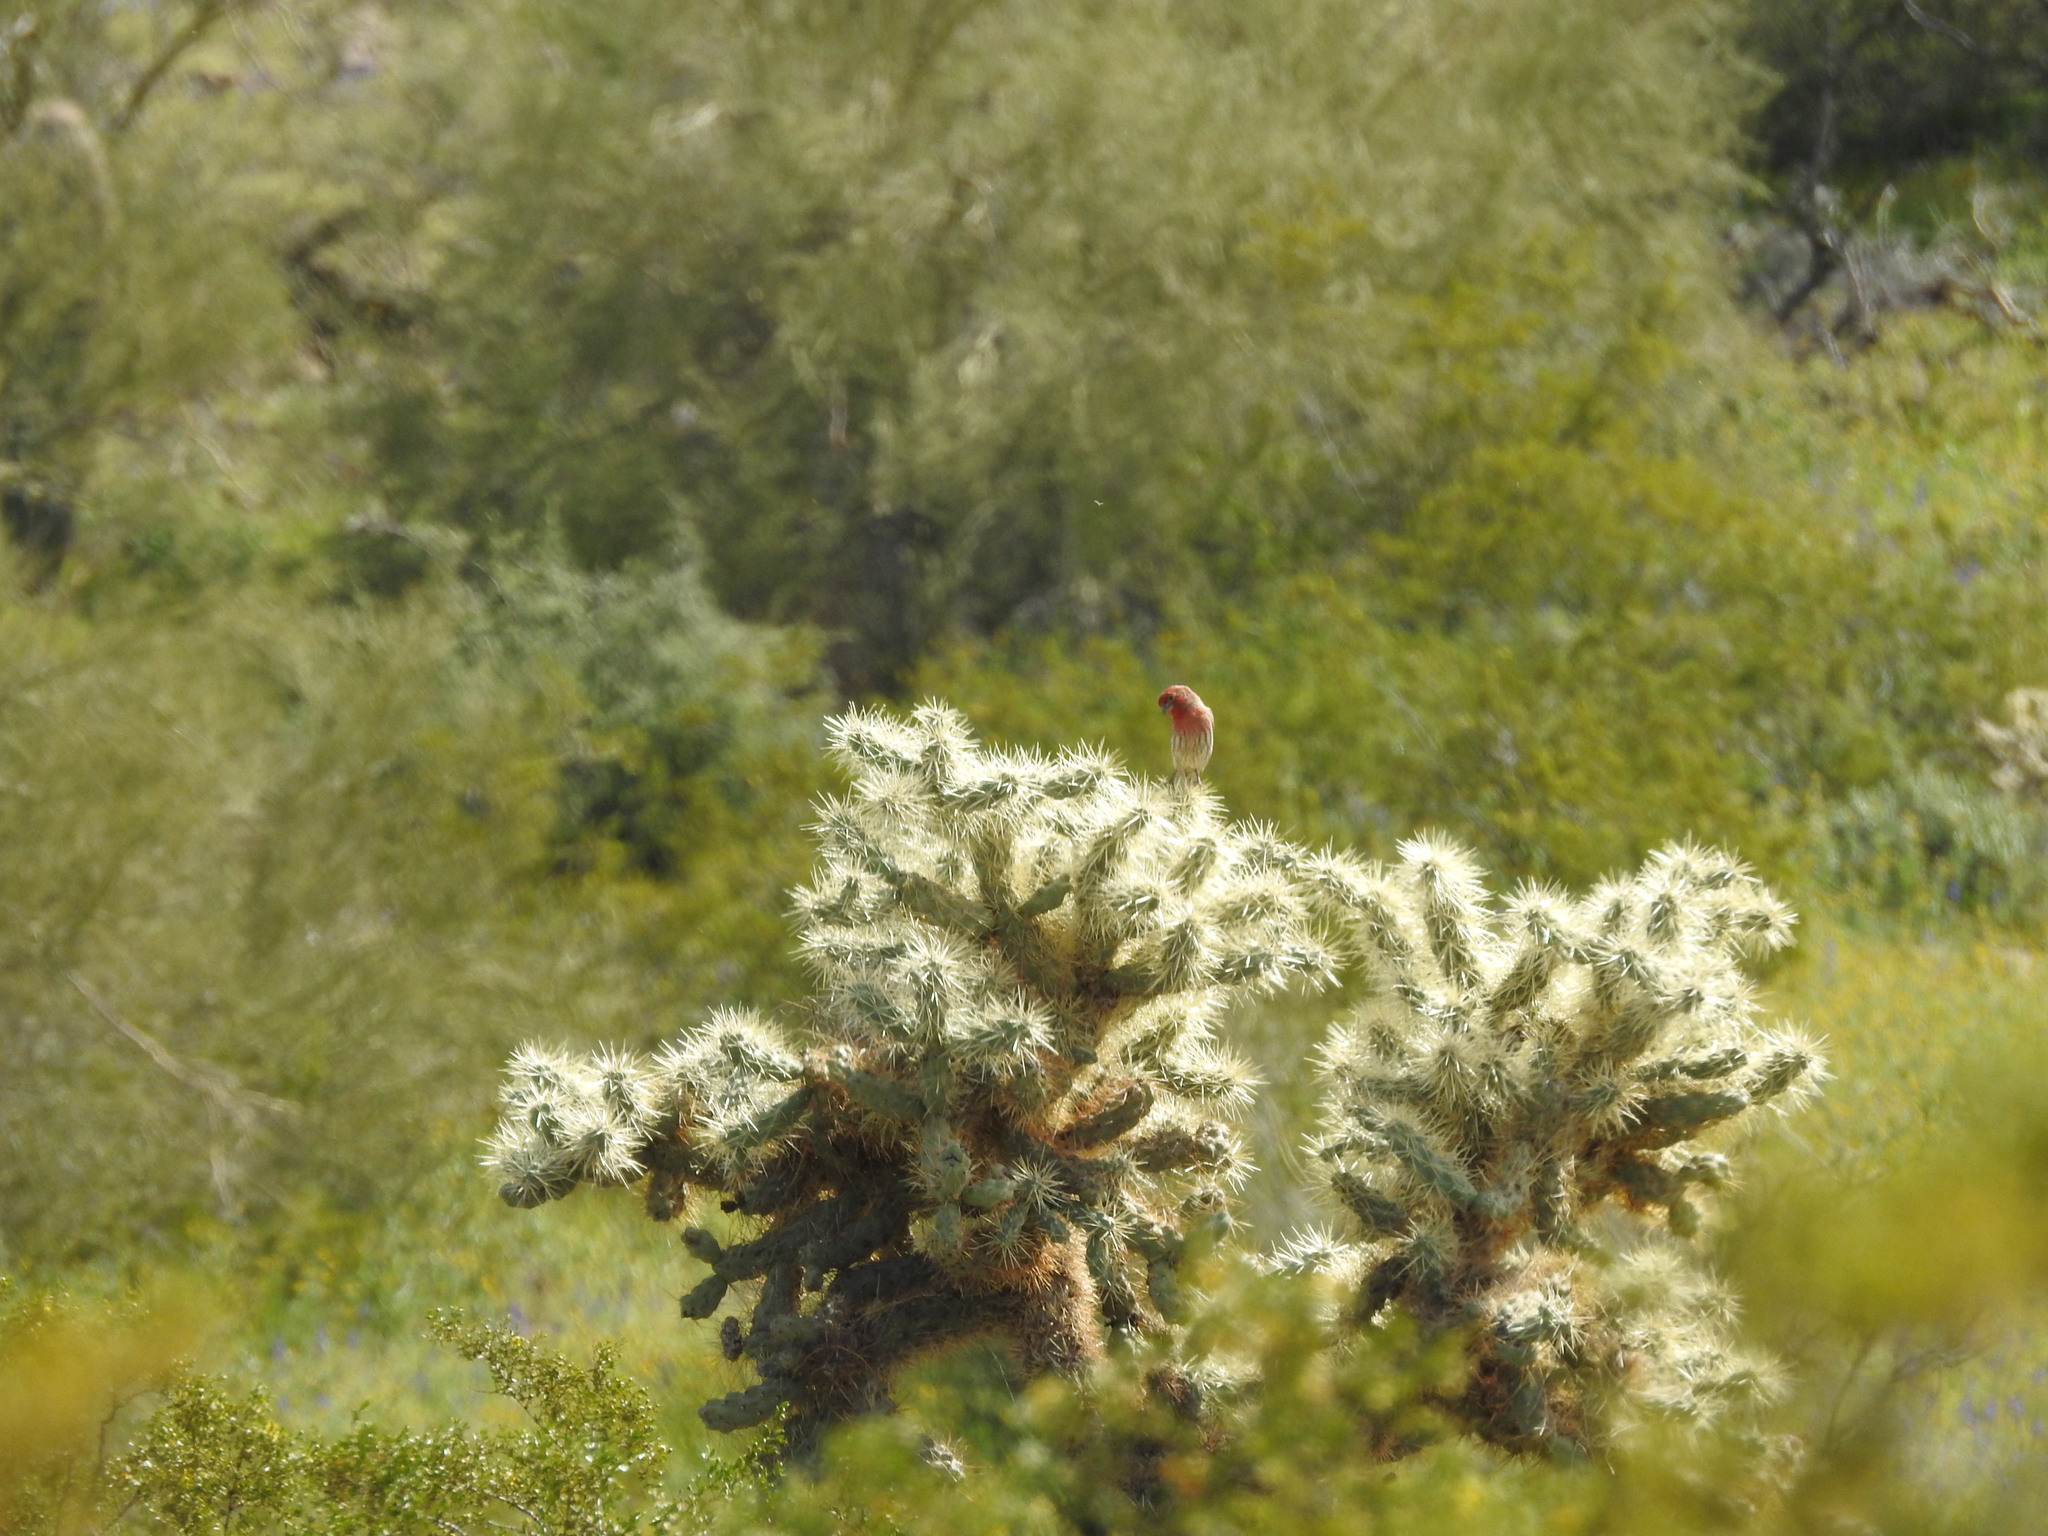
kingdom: Plantae
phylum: Tracheophyta
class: Magnoliopsida
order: Caryophyllales
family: Cactaceae
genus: Cylindropuntia
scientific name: Cylindropuntia fosbergii
